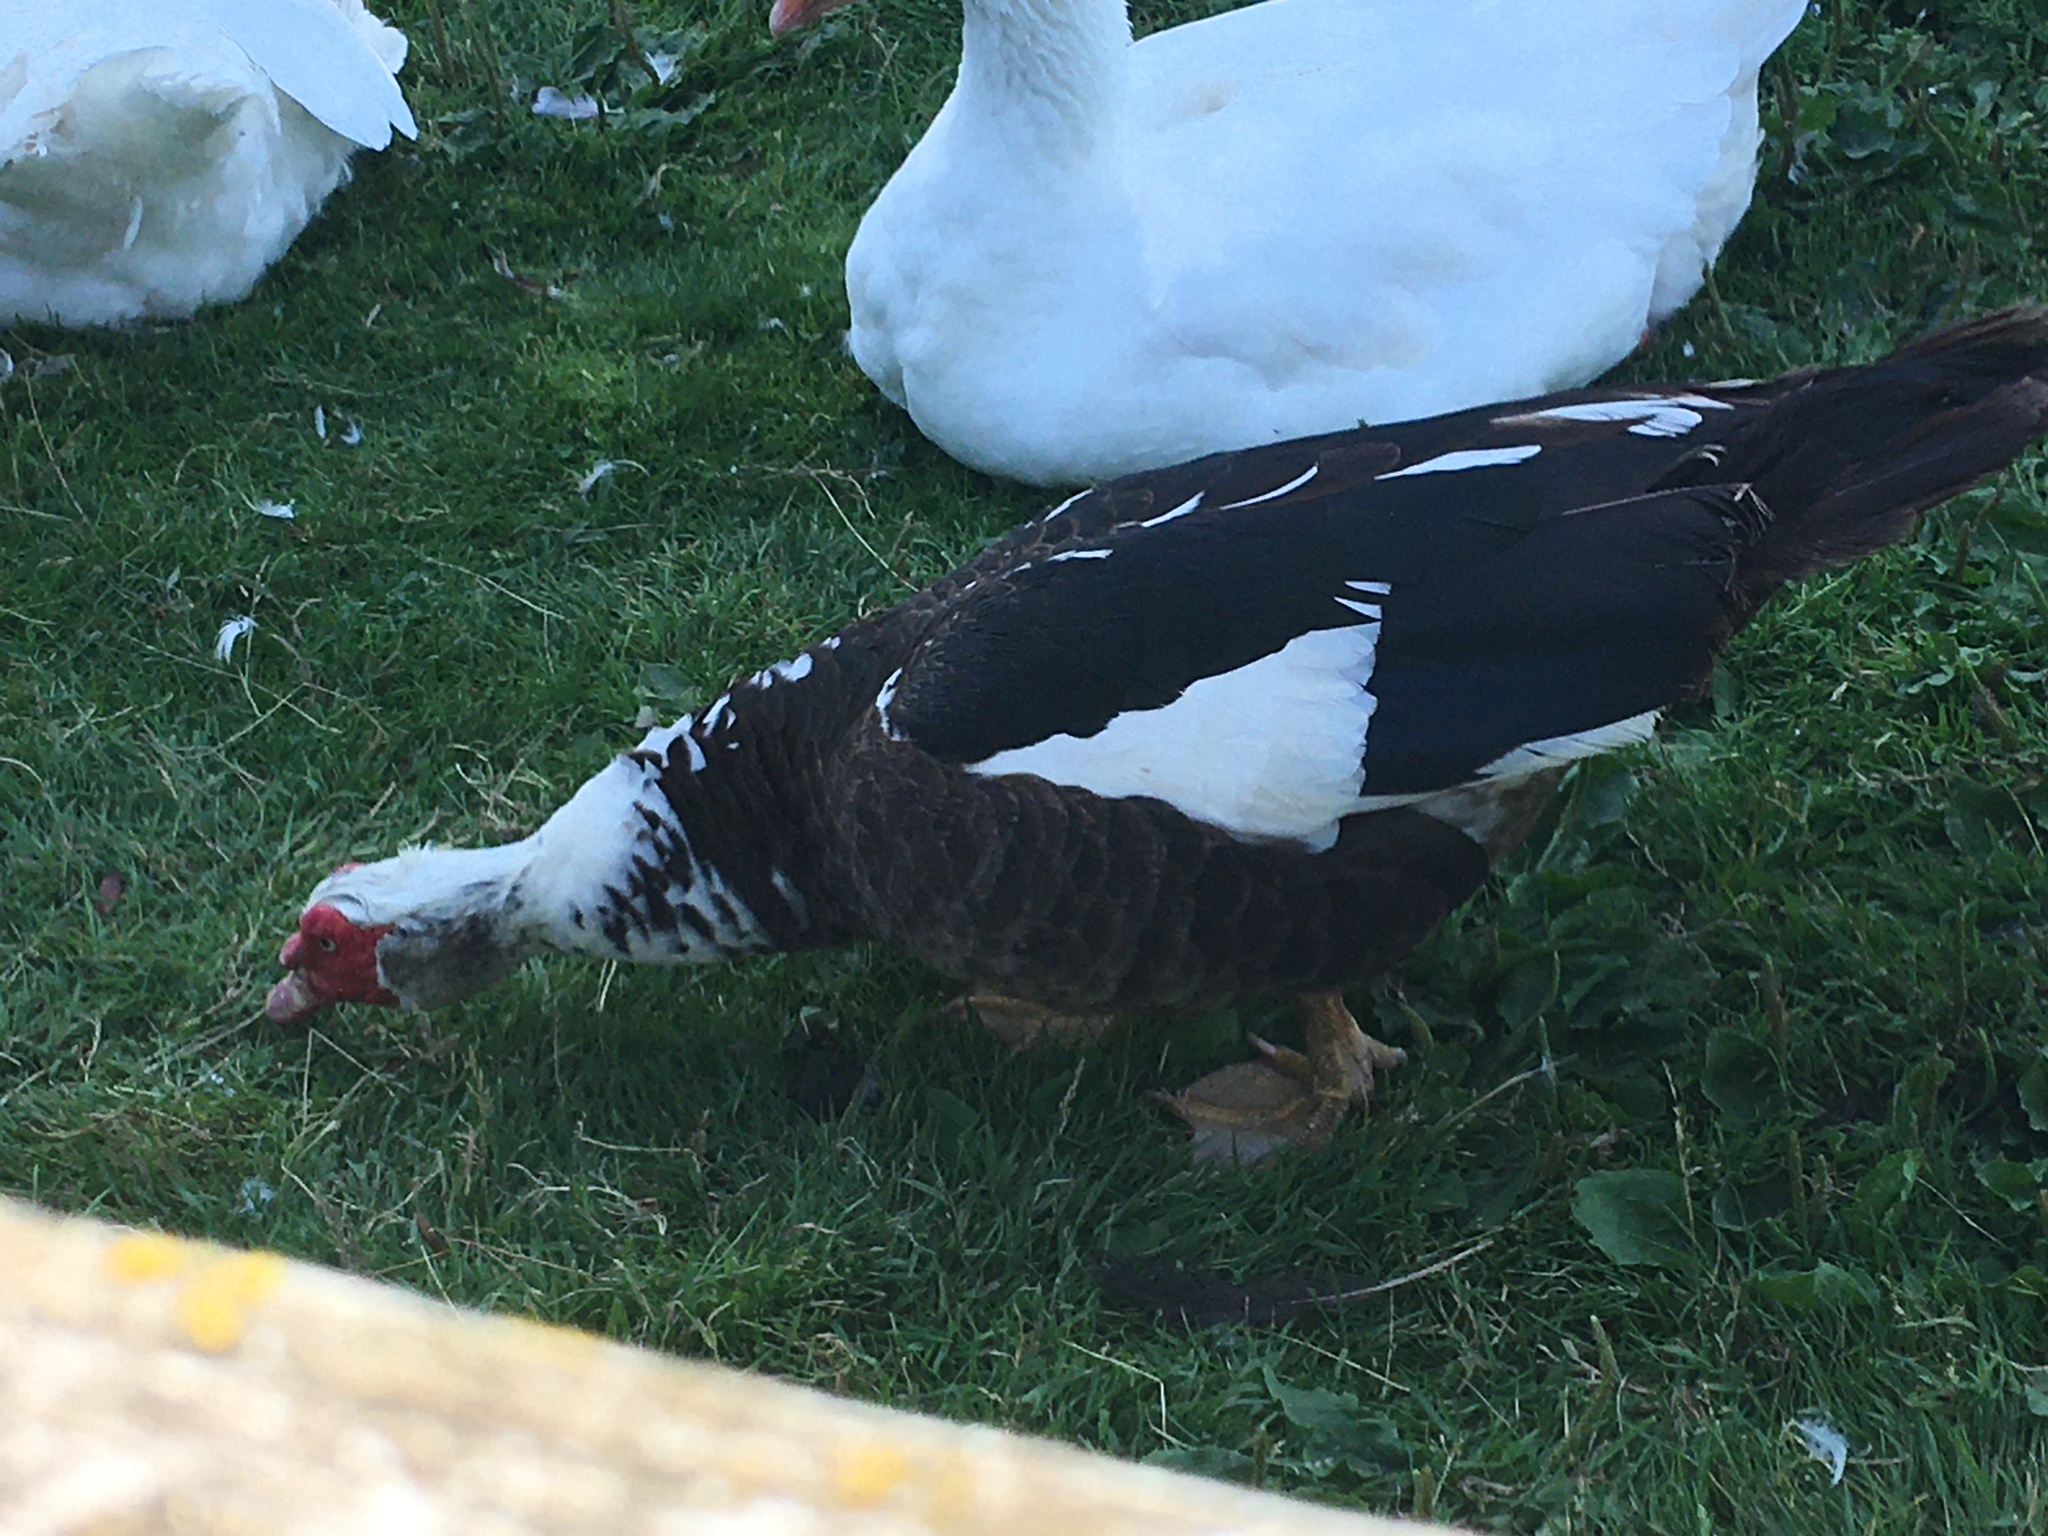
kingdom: Animalia
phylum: Chordata
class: Aves
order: Anseriformes
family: Anatidae
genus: Cairina
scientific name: Cairina moschata
